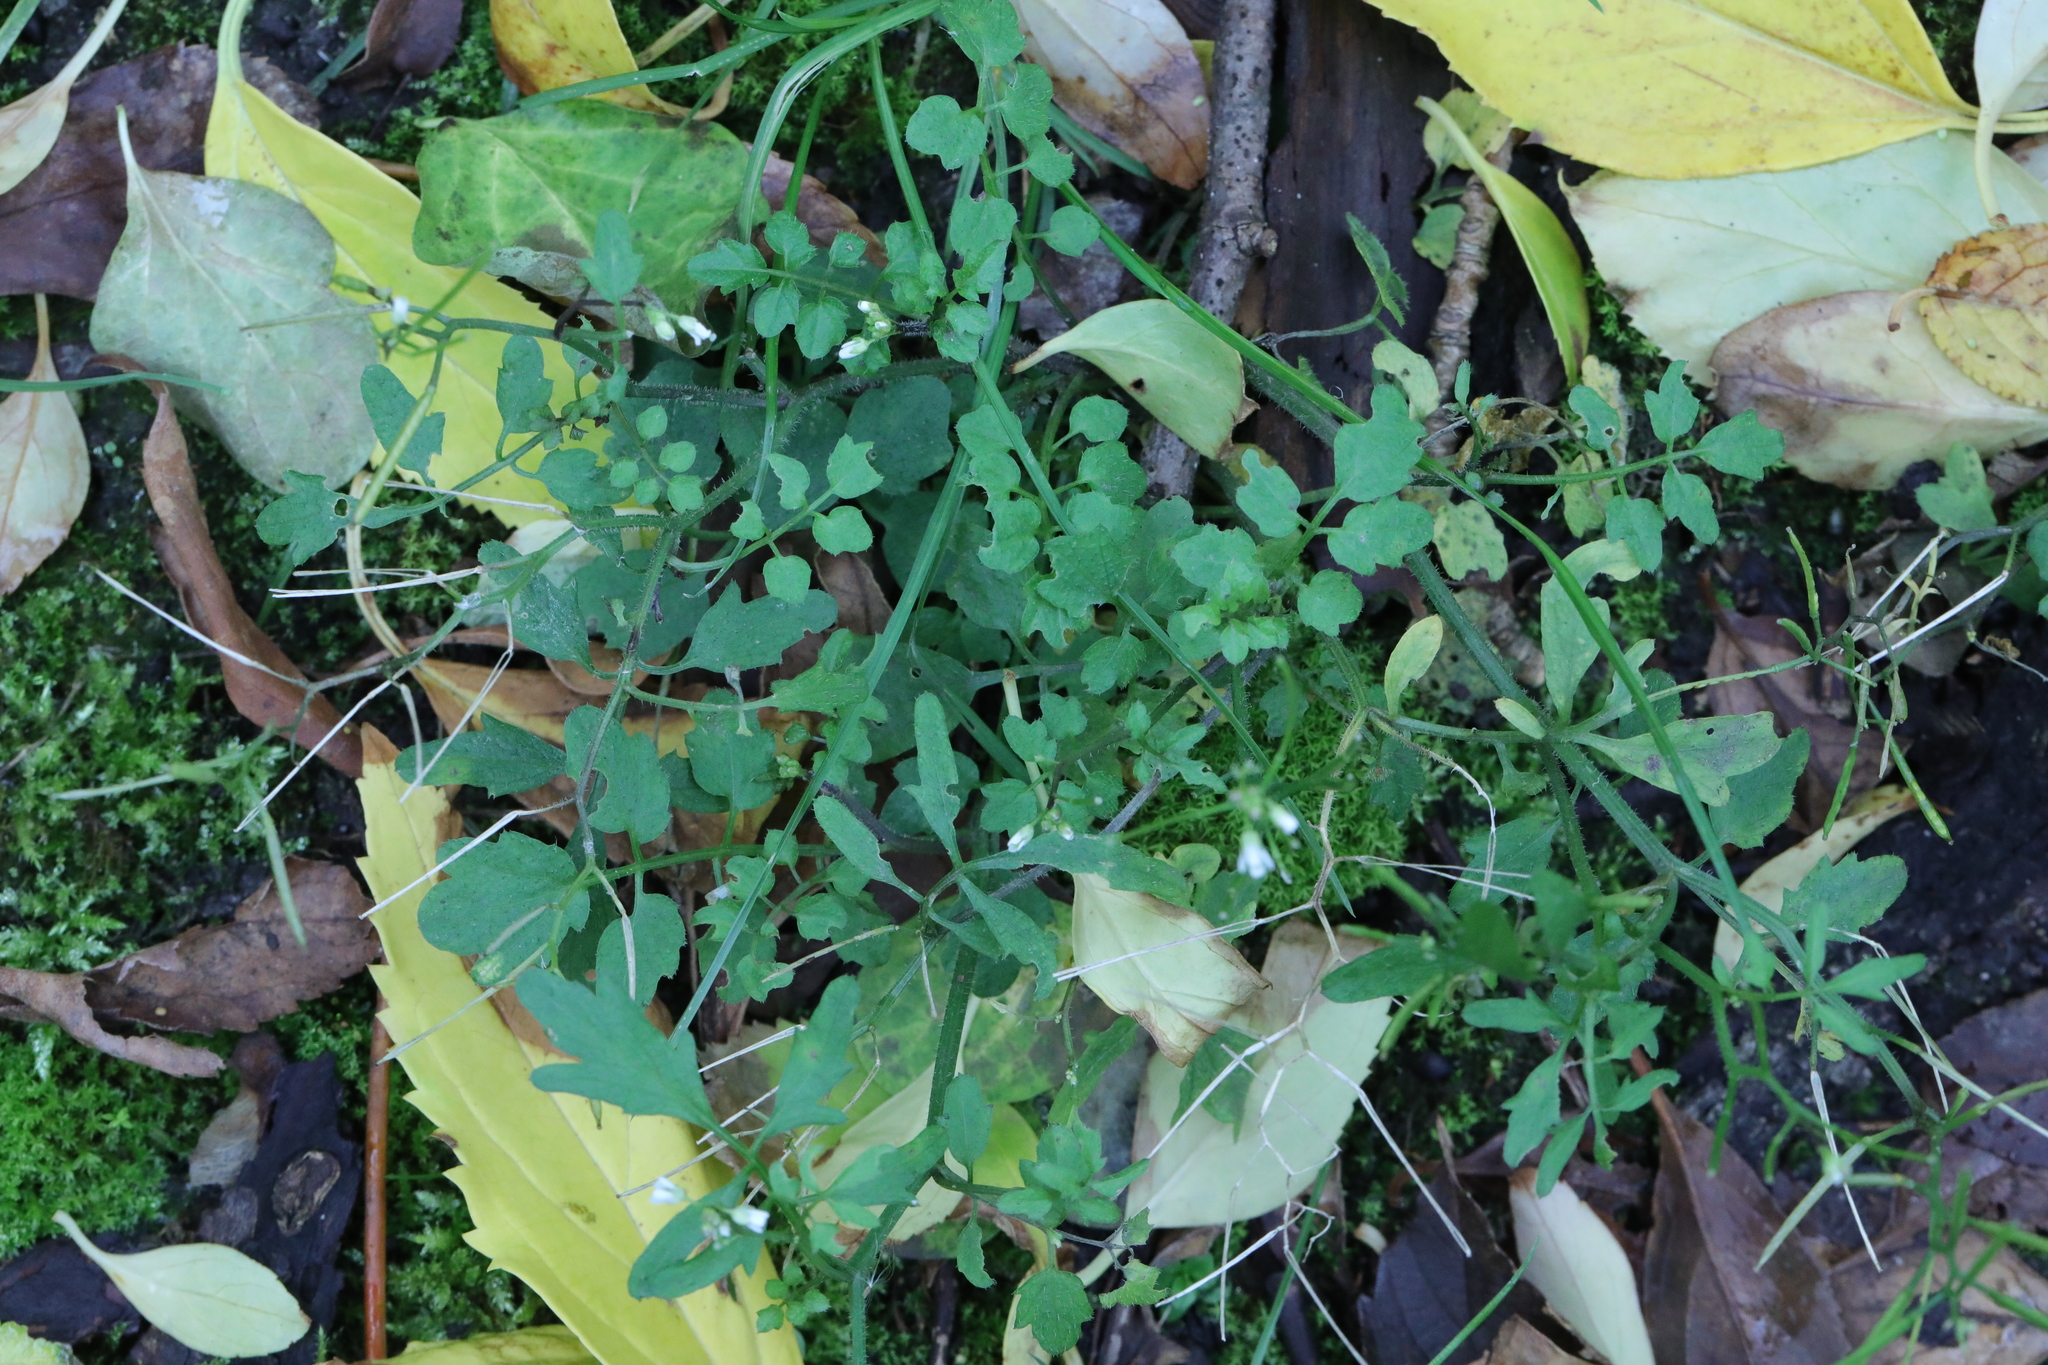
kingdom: Plantae
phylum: Tracheophyta
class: Magnoliopsida
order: Brassicales
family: Brassicaceae
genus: Cardamine
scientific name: Cardamine flexuosa
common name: Woodland bittercress
